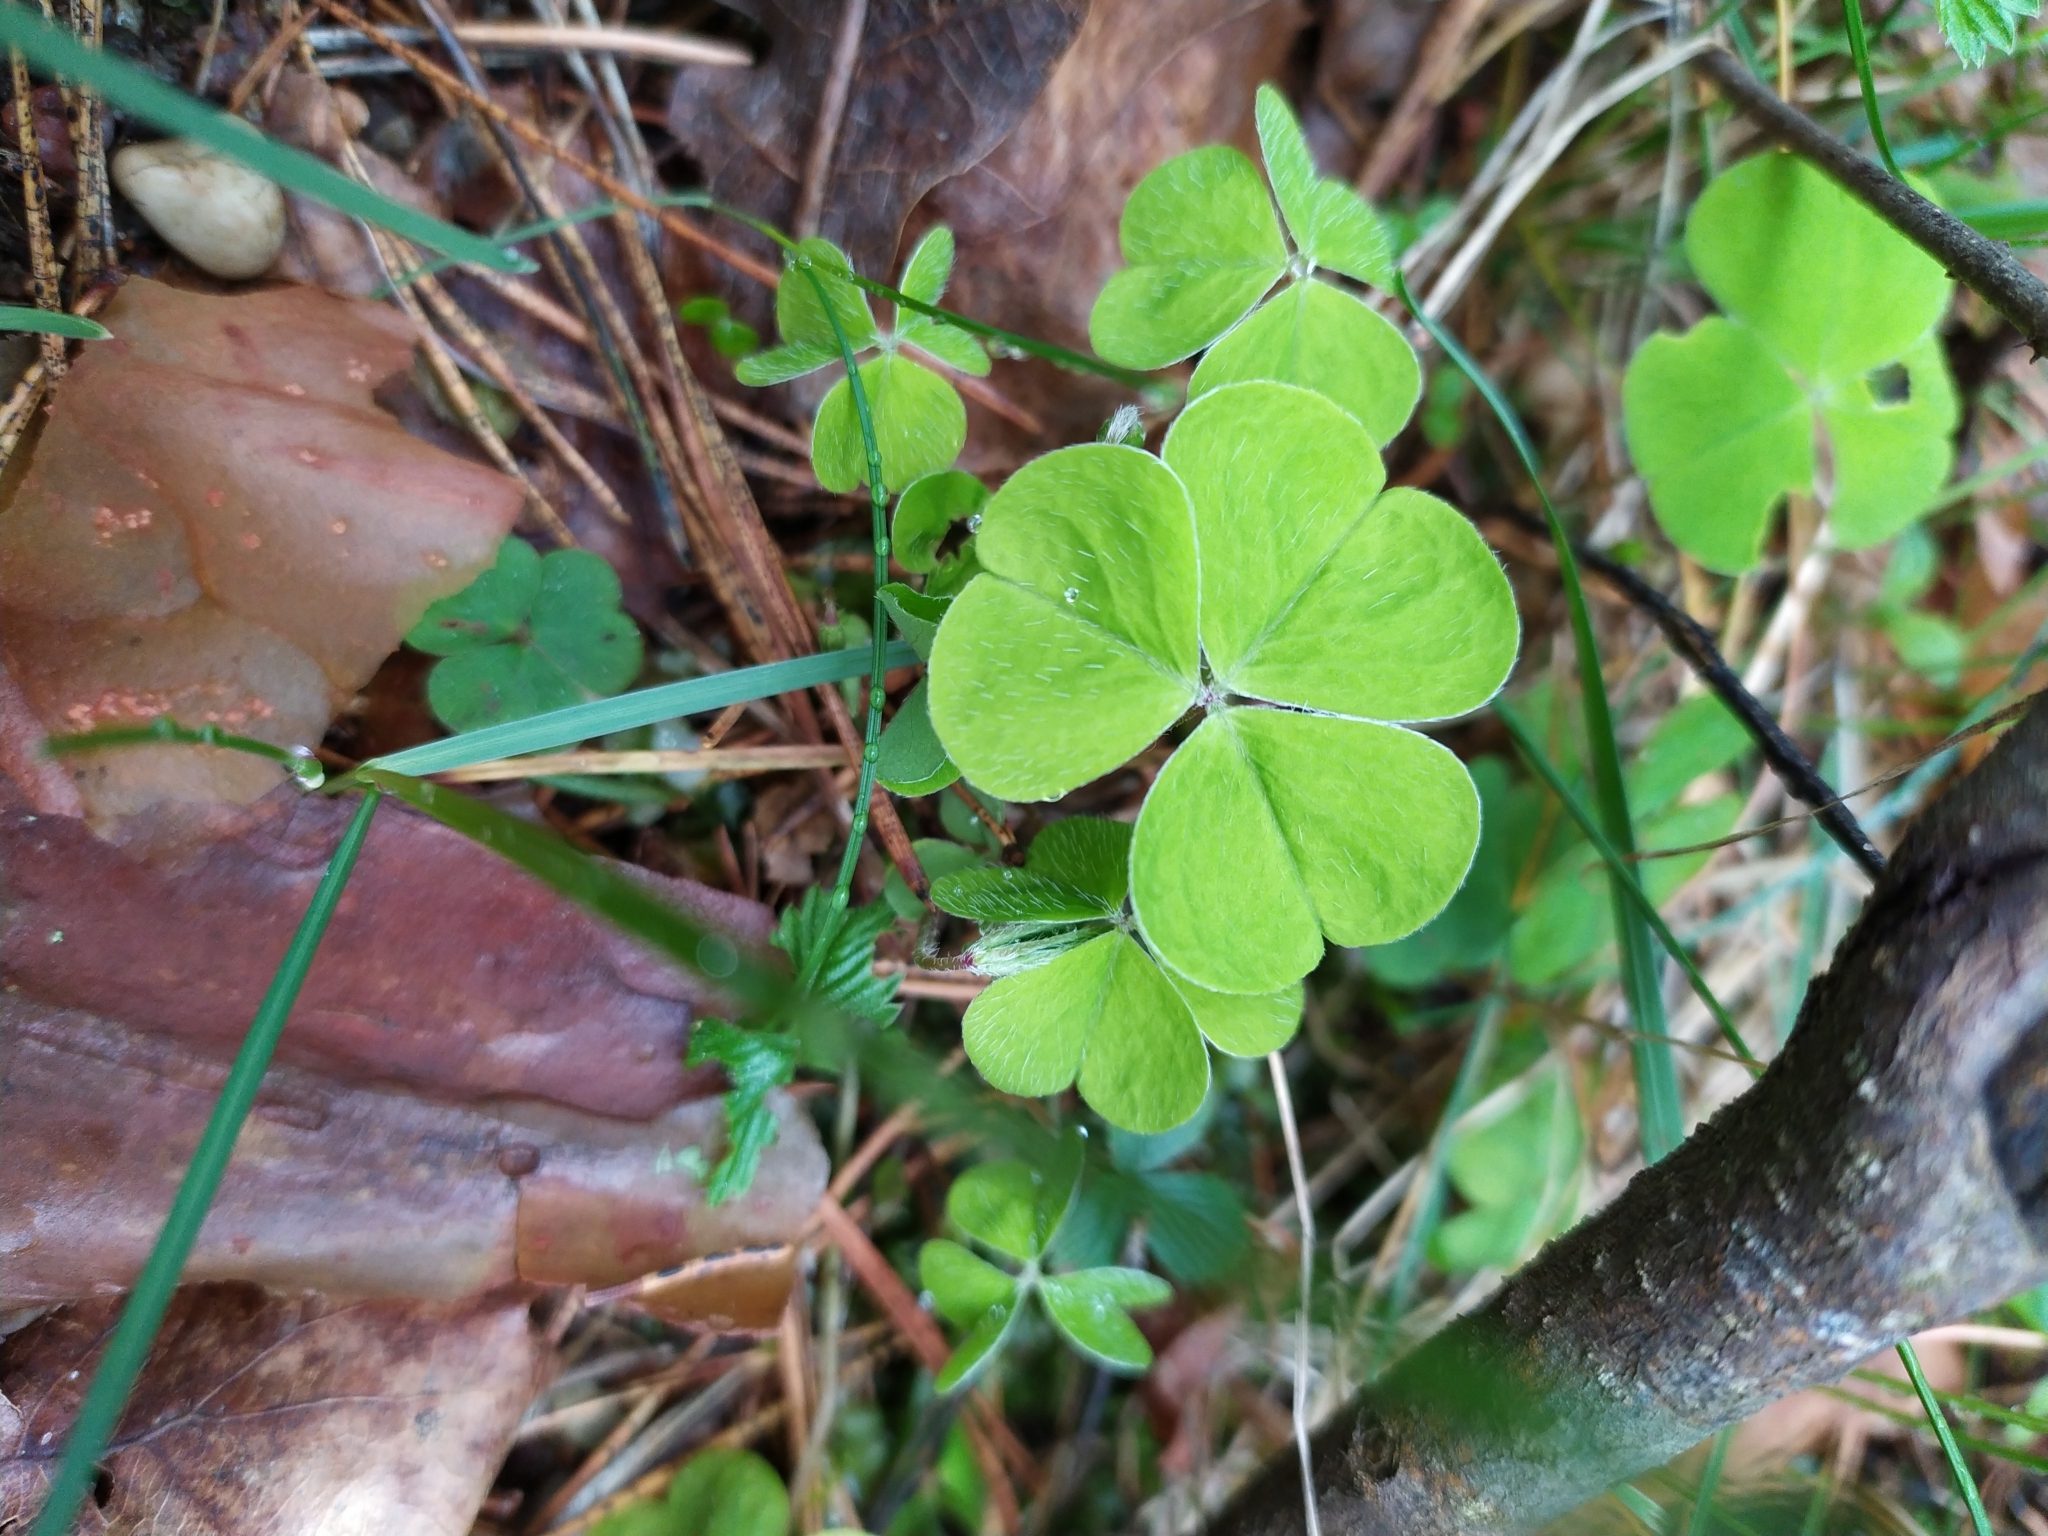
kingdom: Plantae
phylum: Tracheophyta
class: Magnoliopsida
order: Oxalidales
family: Oxalidaceae
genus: Oxalis
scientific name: Oxalis acetosella
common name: Wood-sorrel
